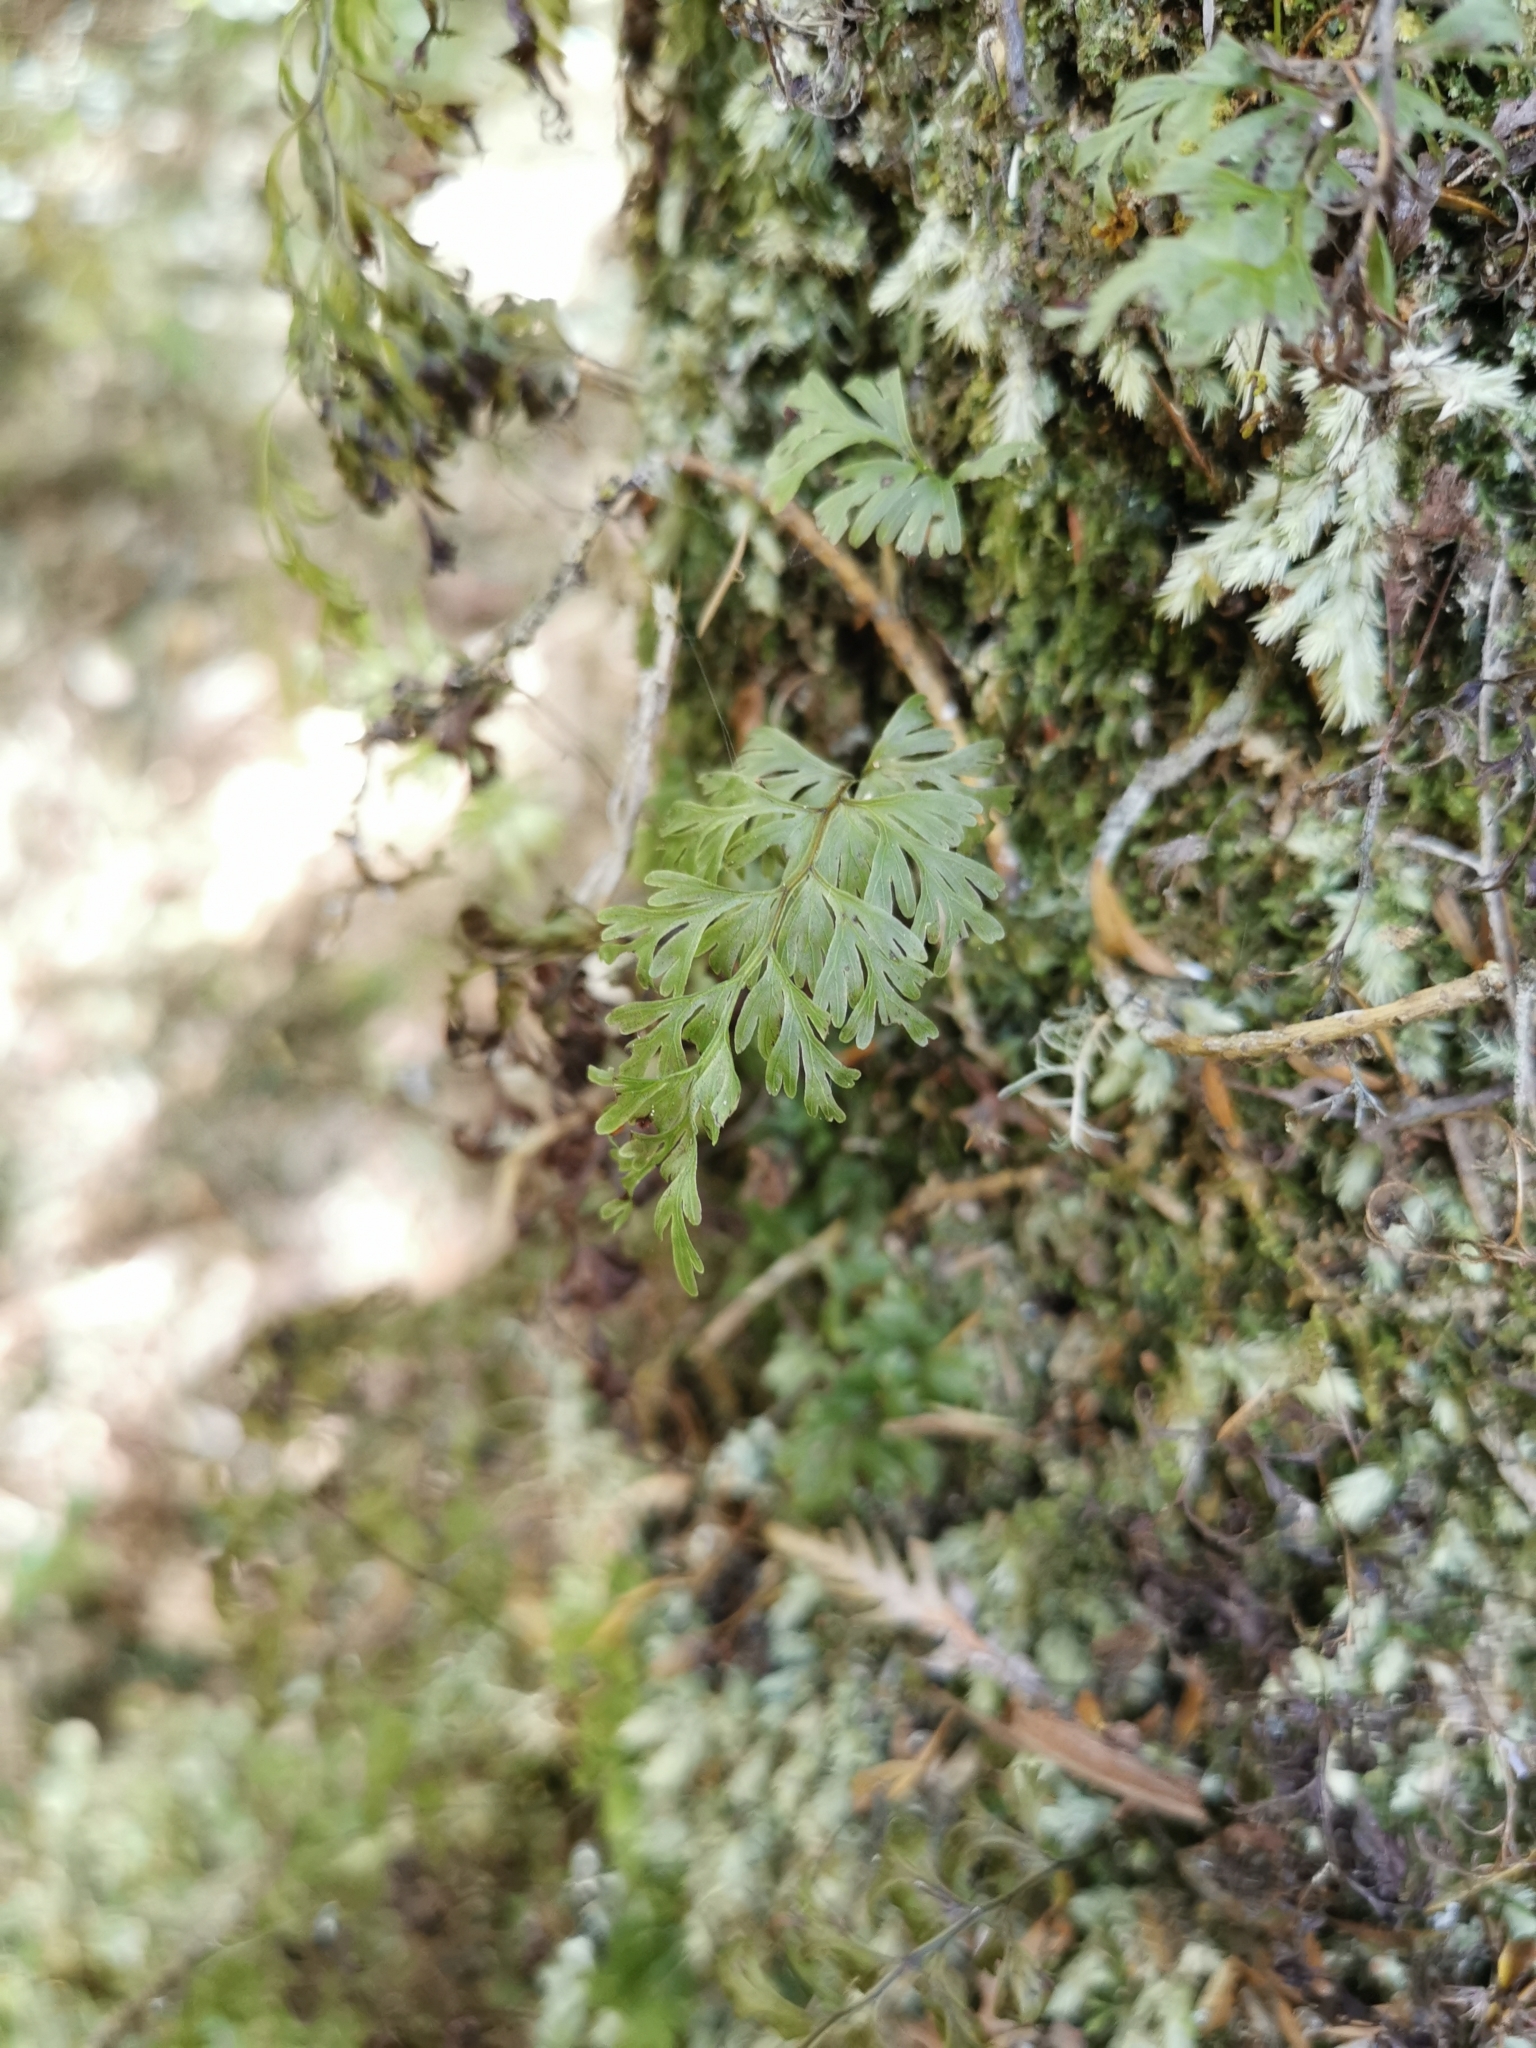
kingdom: Plantae
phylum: Tracheophyta
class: Polypodiopsida
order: Hymenophyllales
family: Hymenophyllaceae
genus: Hymenophyllum
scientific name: Hymenophyllum demissum
